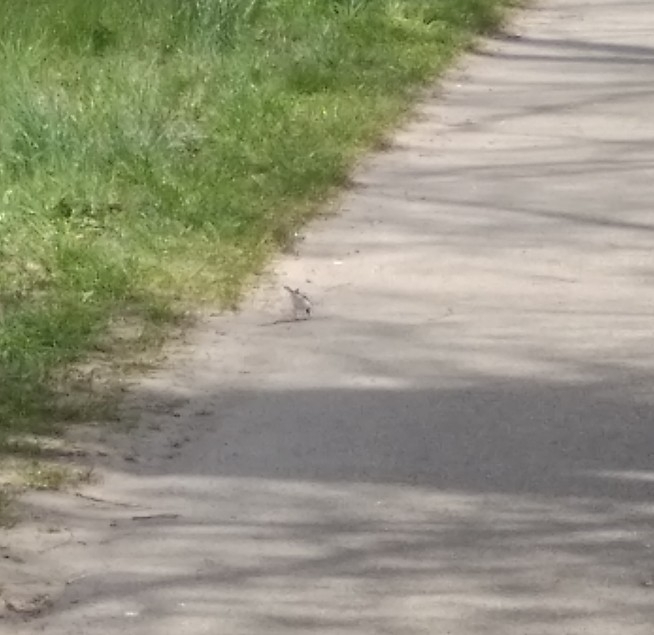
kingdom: Animalia
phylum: Chordata
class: Aves
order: Passeriformes
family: Motacillidae
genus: Motacilla
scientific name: Motacilla alba
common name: White wagtail
